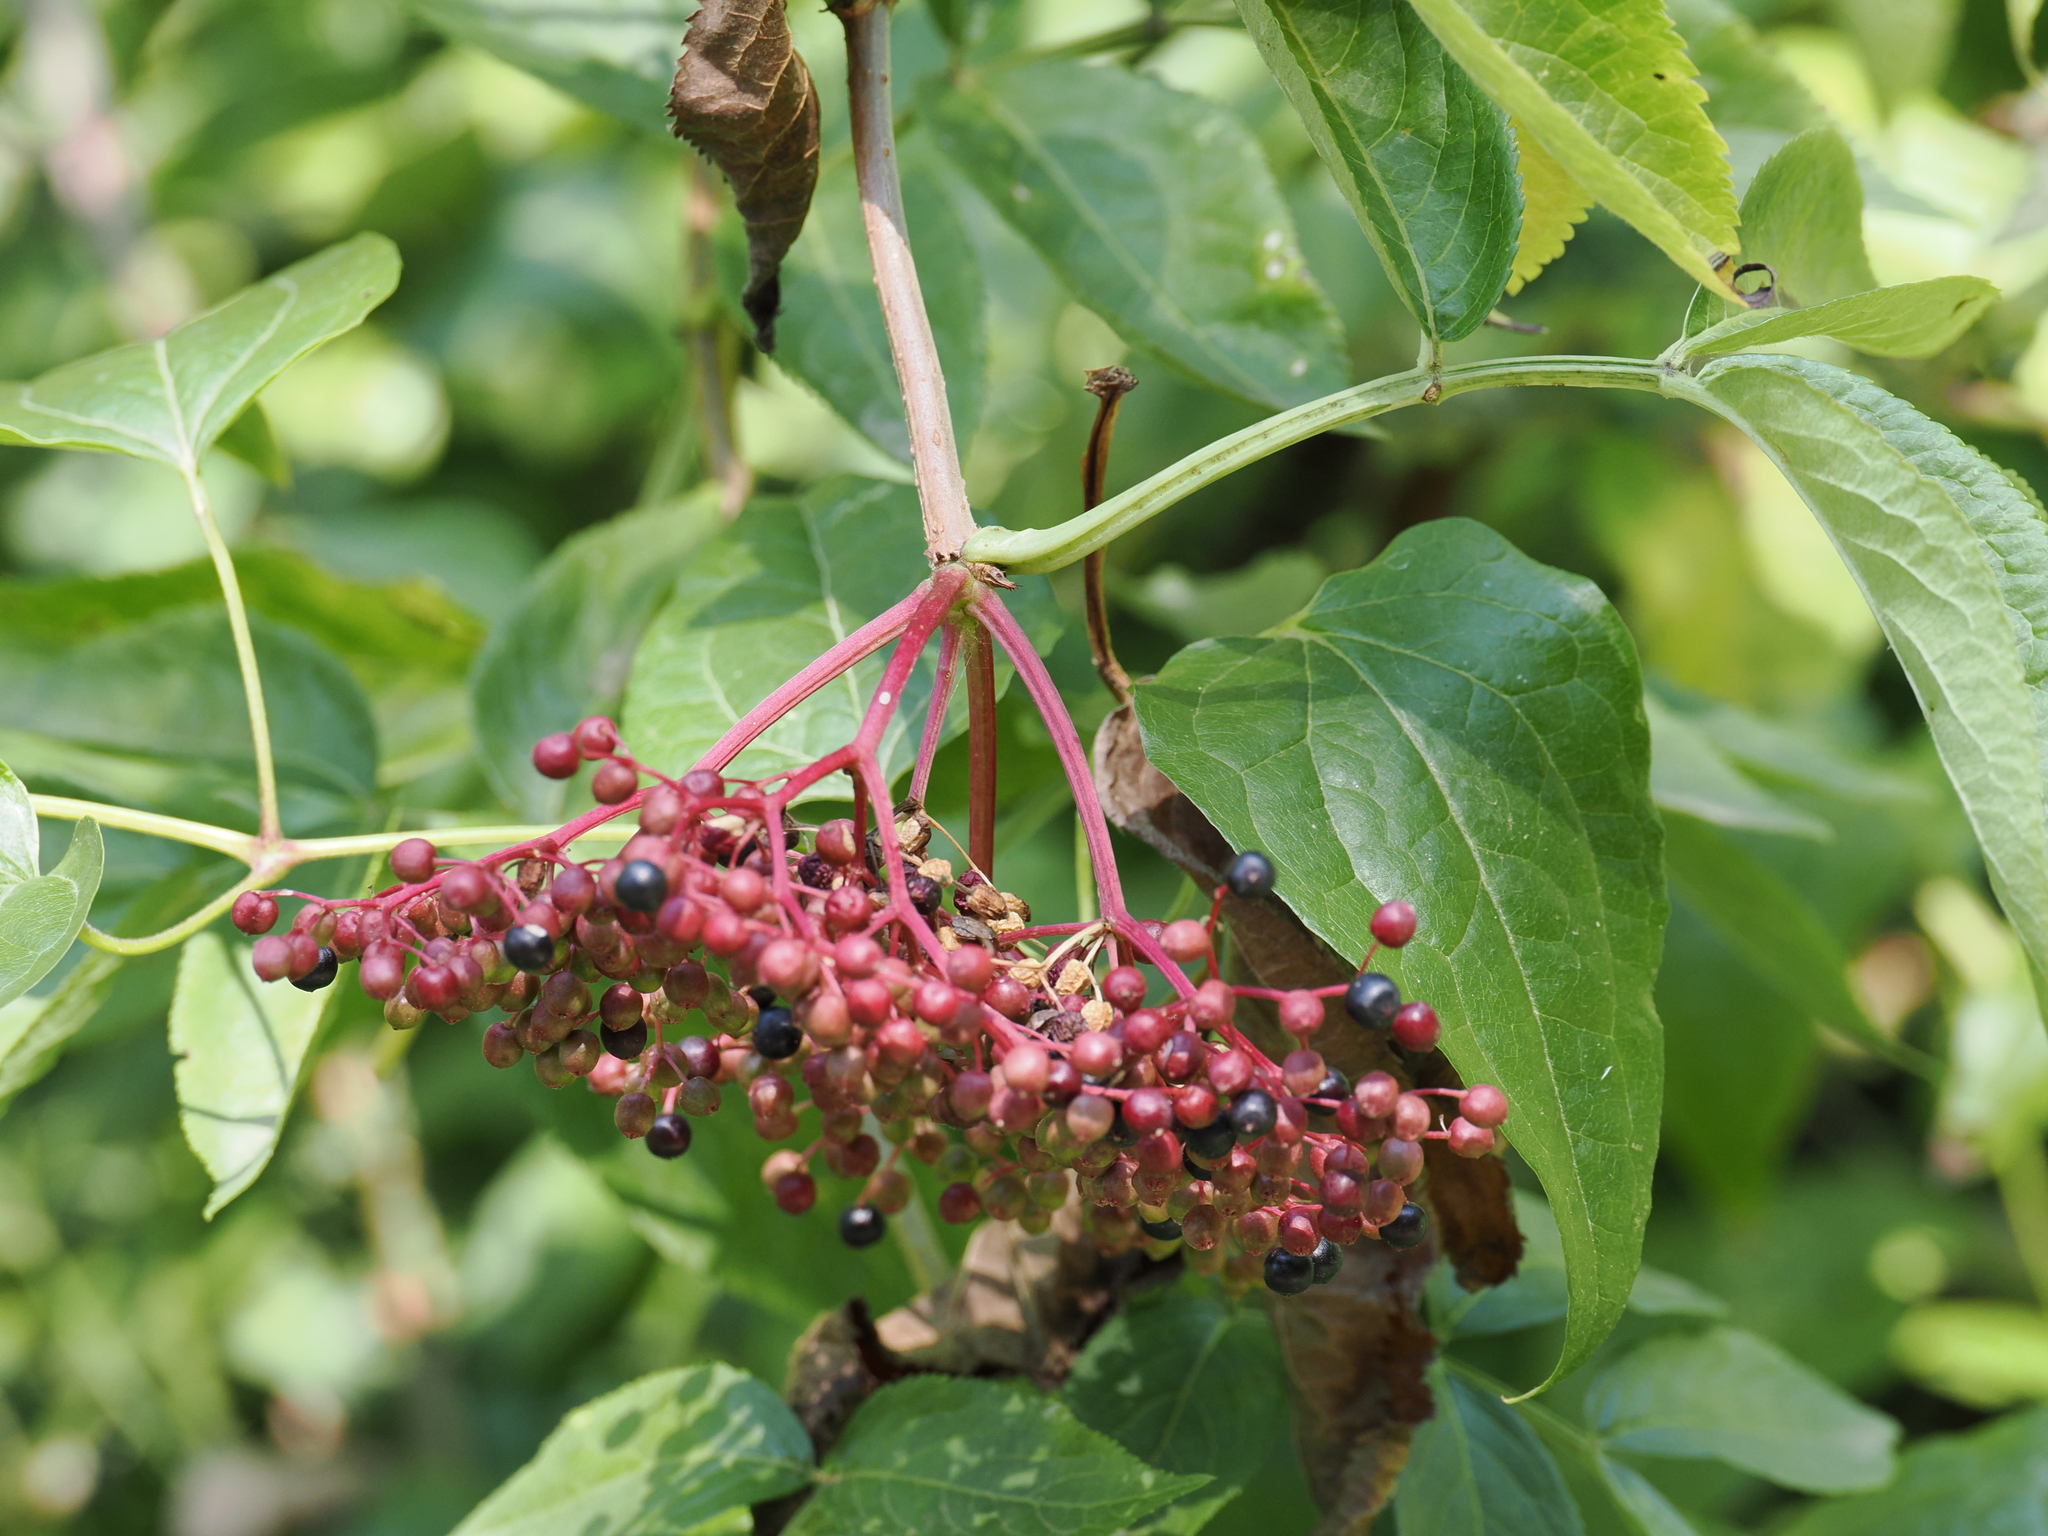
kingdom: Plantae
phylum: Tracheophyta
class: Magnoliopsida
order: Dipsacales
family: Viburnaceae
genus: Sambucus
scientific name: Sambucus nigra
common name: Elder
